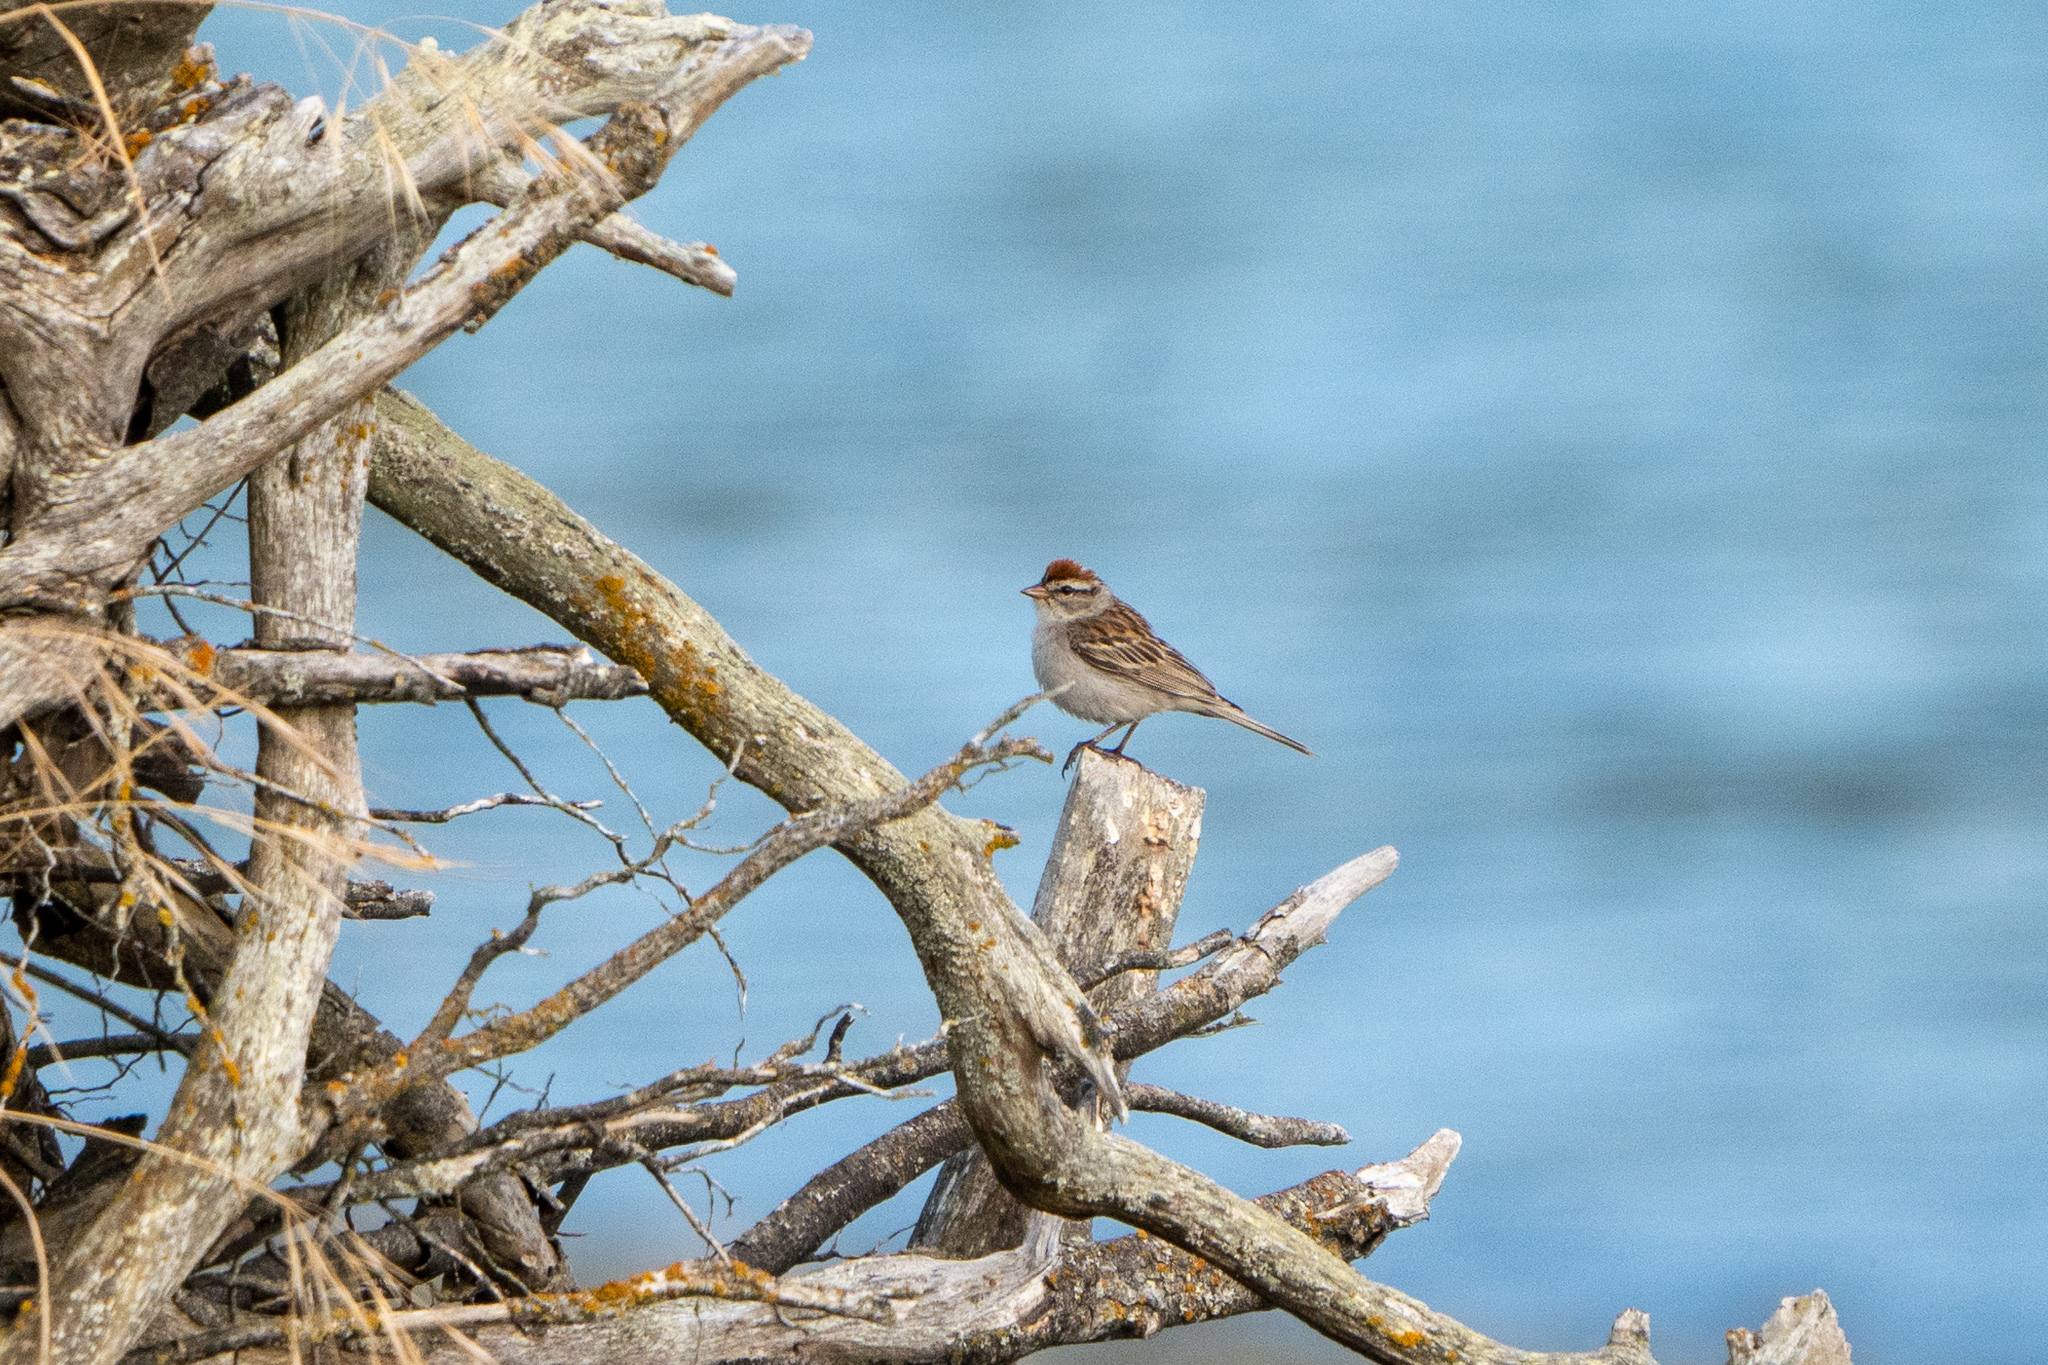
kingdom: Animalia
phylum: Chordata
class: Aves
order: Passeriformes
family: Passerellidae
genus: Spizella
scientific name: Spizella passerina
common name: Chipping sparrow
